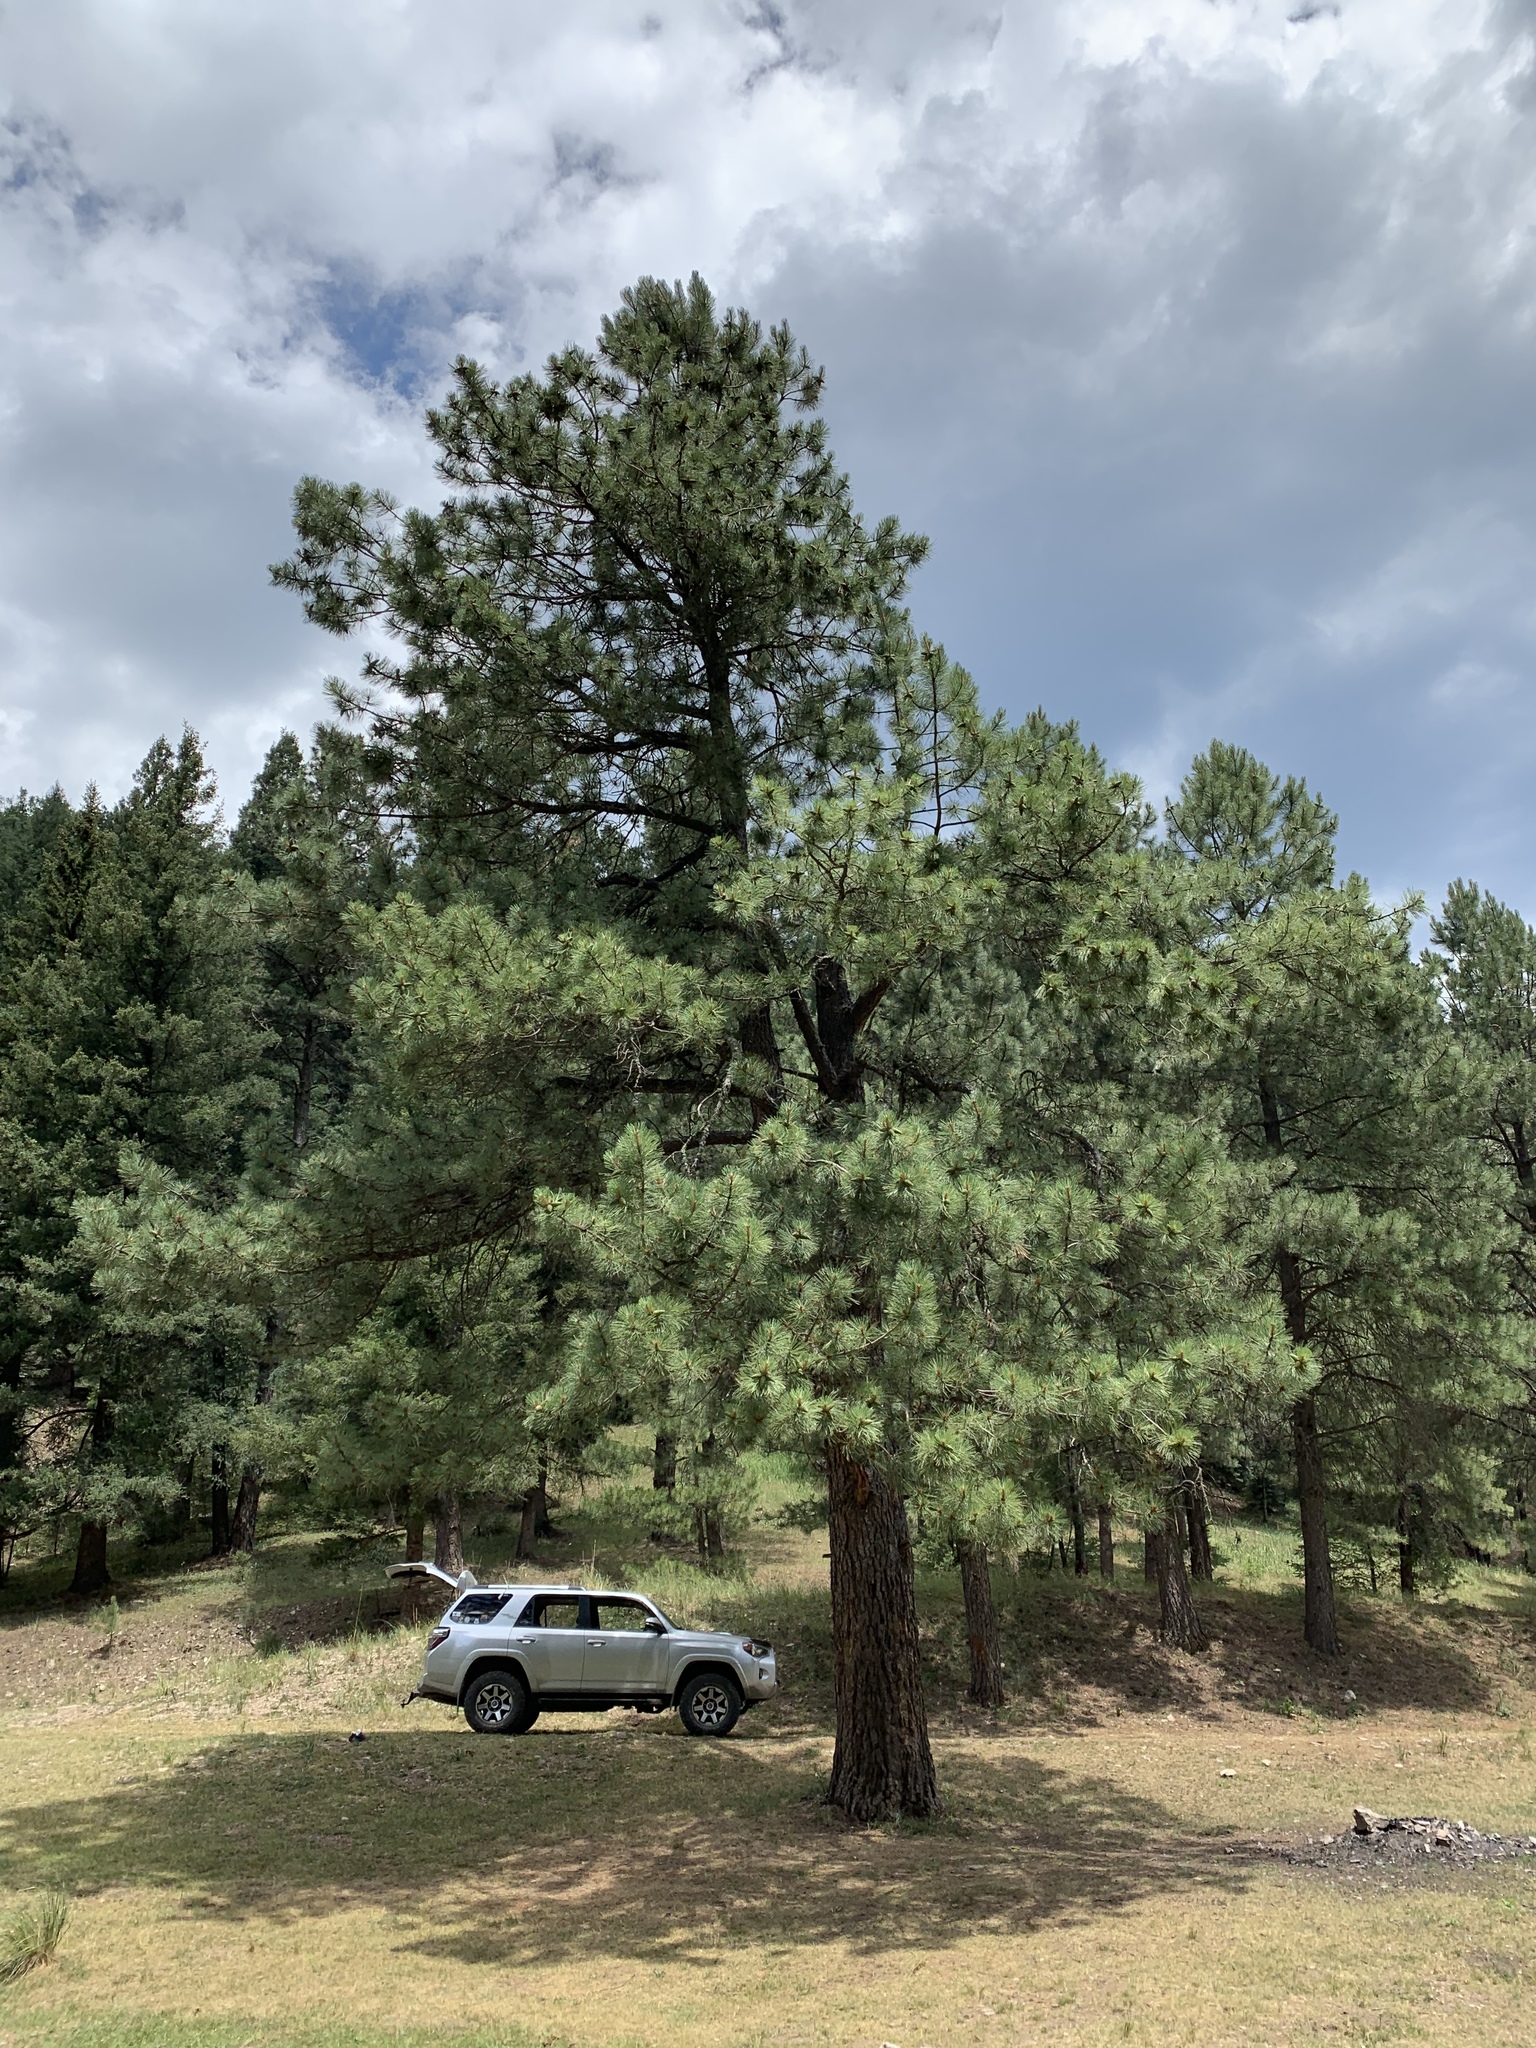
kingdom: Plantae
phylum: Tracheophyta
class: Pinopsida
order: Pinales
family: Pinaceae
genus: Pinus
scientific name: Pinus ponderosa
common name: Western yellow-pine
